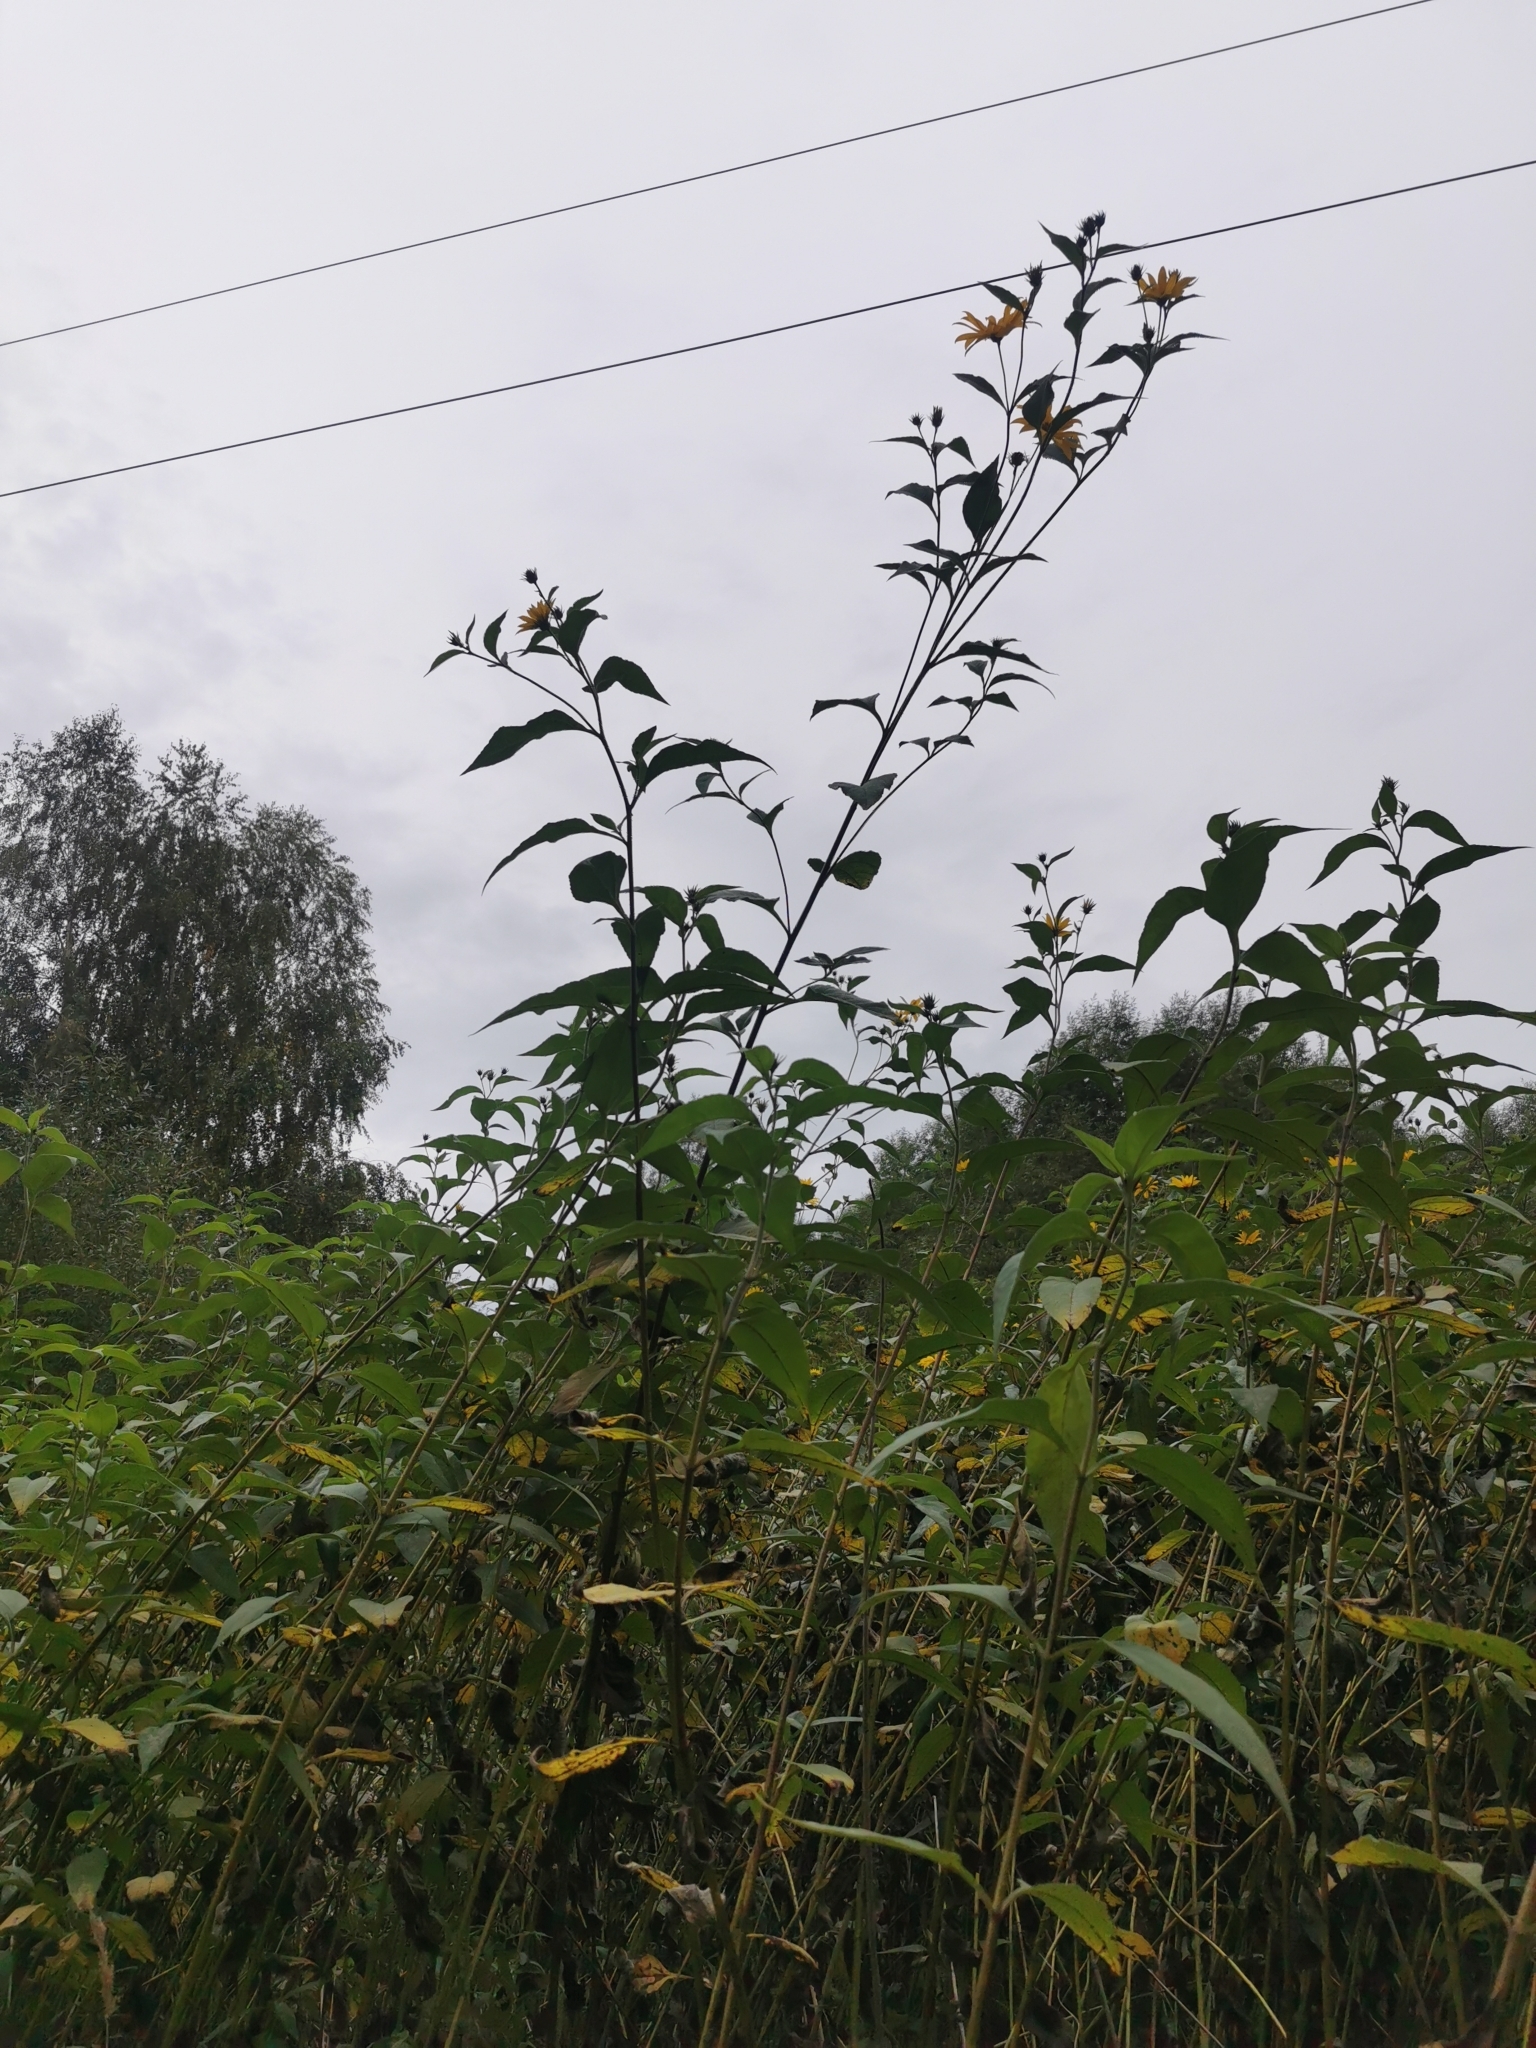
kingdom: Plantae
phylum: Tracheophyta
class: Magnoliopsida
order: Asterales
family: Asteraceae
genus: Helianthus
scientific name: Helianthus tuberosus
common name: Jerusalem artichoke
